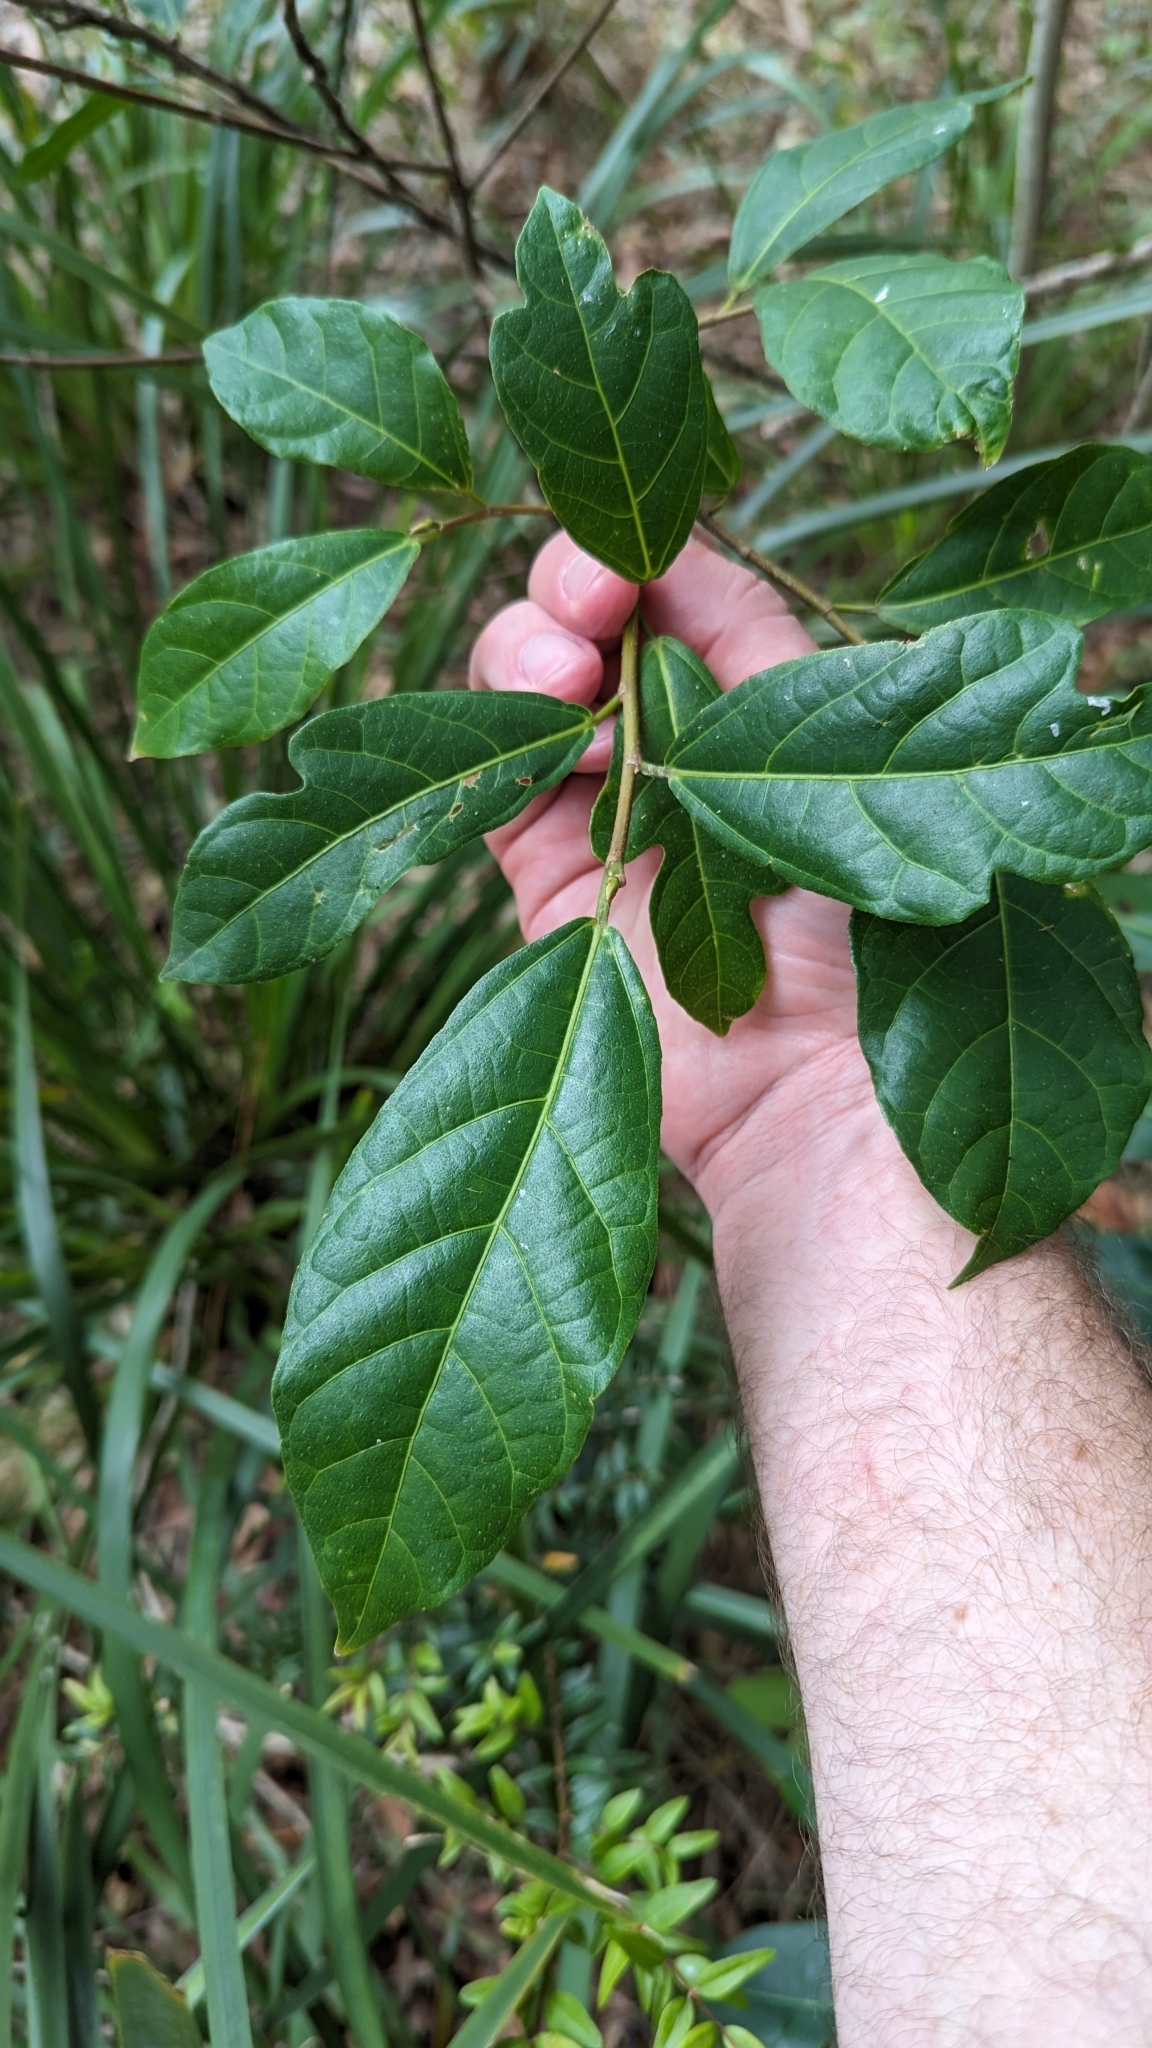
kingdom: Plantae
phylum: Tracheophyta
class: Magnoliopsida
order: Rosales
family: Moraceae
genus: Ficus
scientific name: Ficus fraseri
